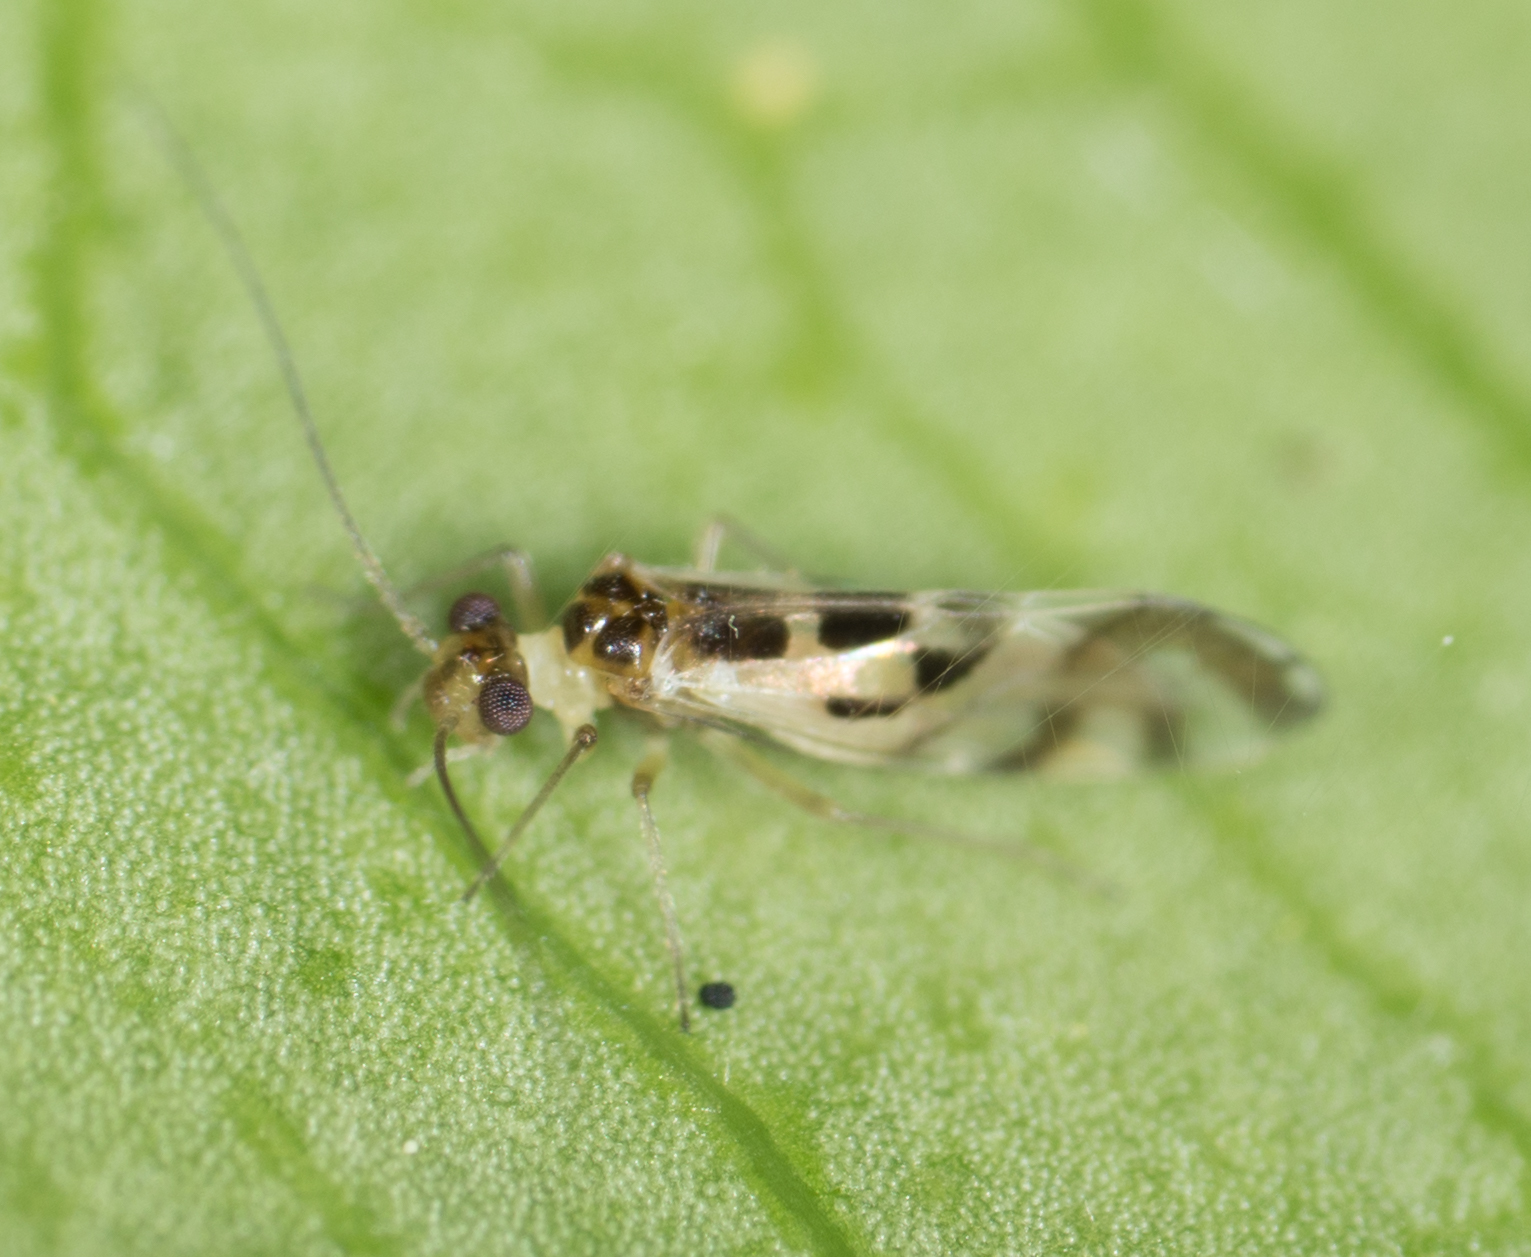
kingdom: Animalia
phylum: Arthropoda
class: Insecta
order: Psocodea
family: Stenopsocidae
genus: Graphopsocus
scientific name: Graphopsocus cruciatus
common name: Lizard bark louse
